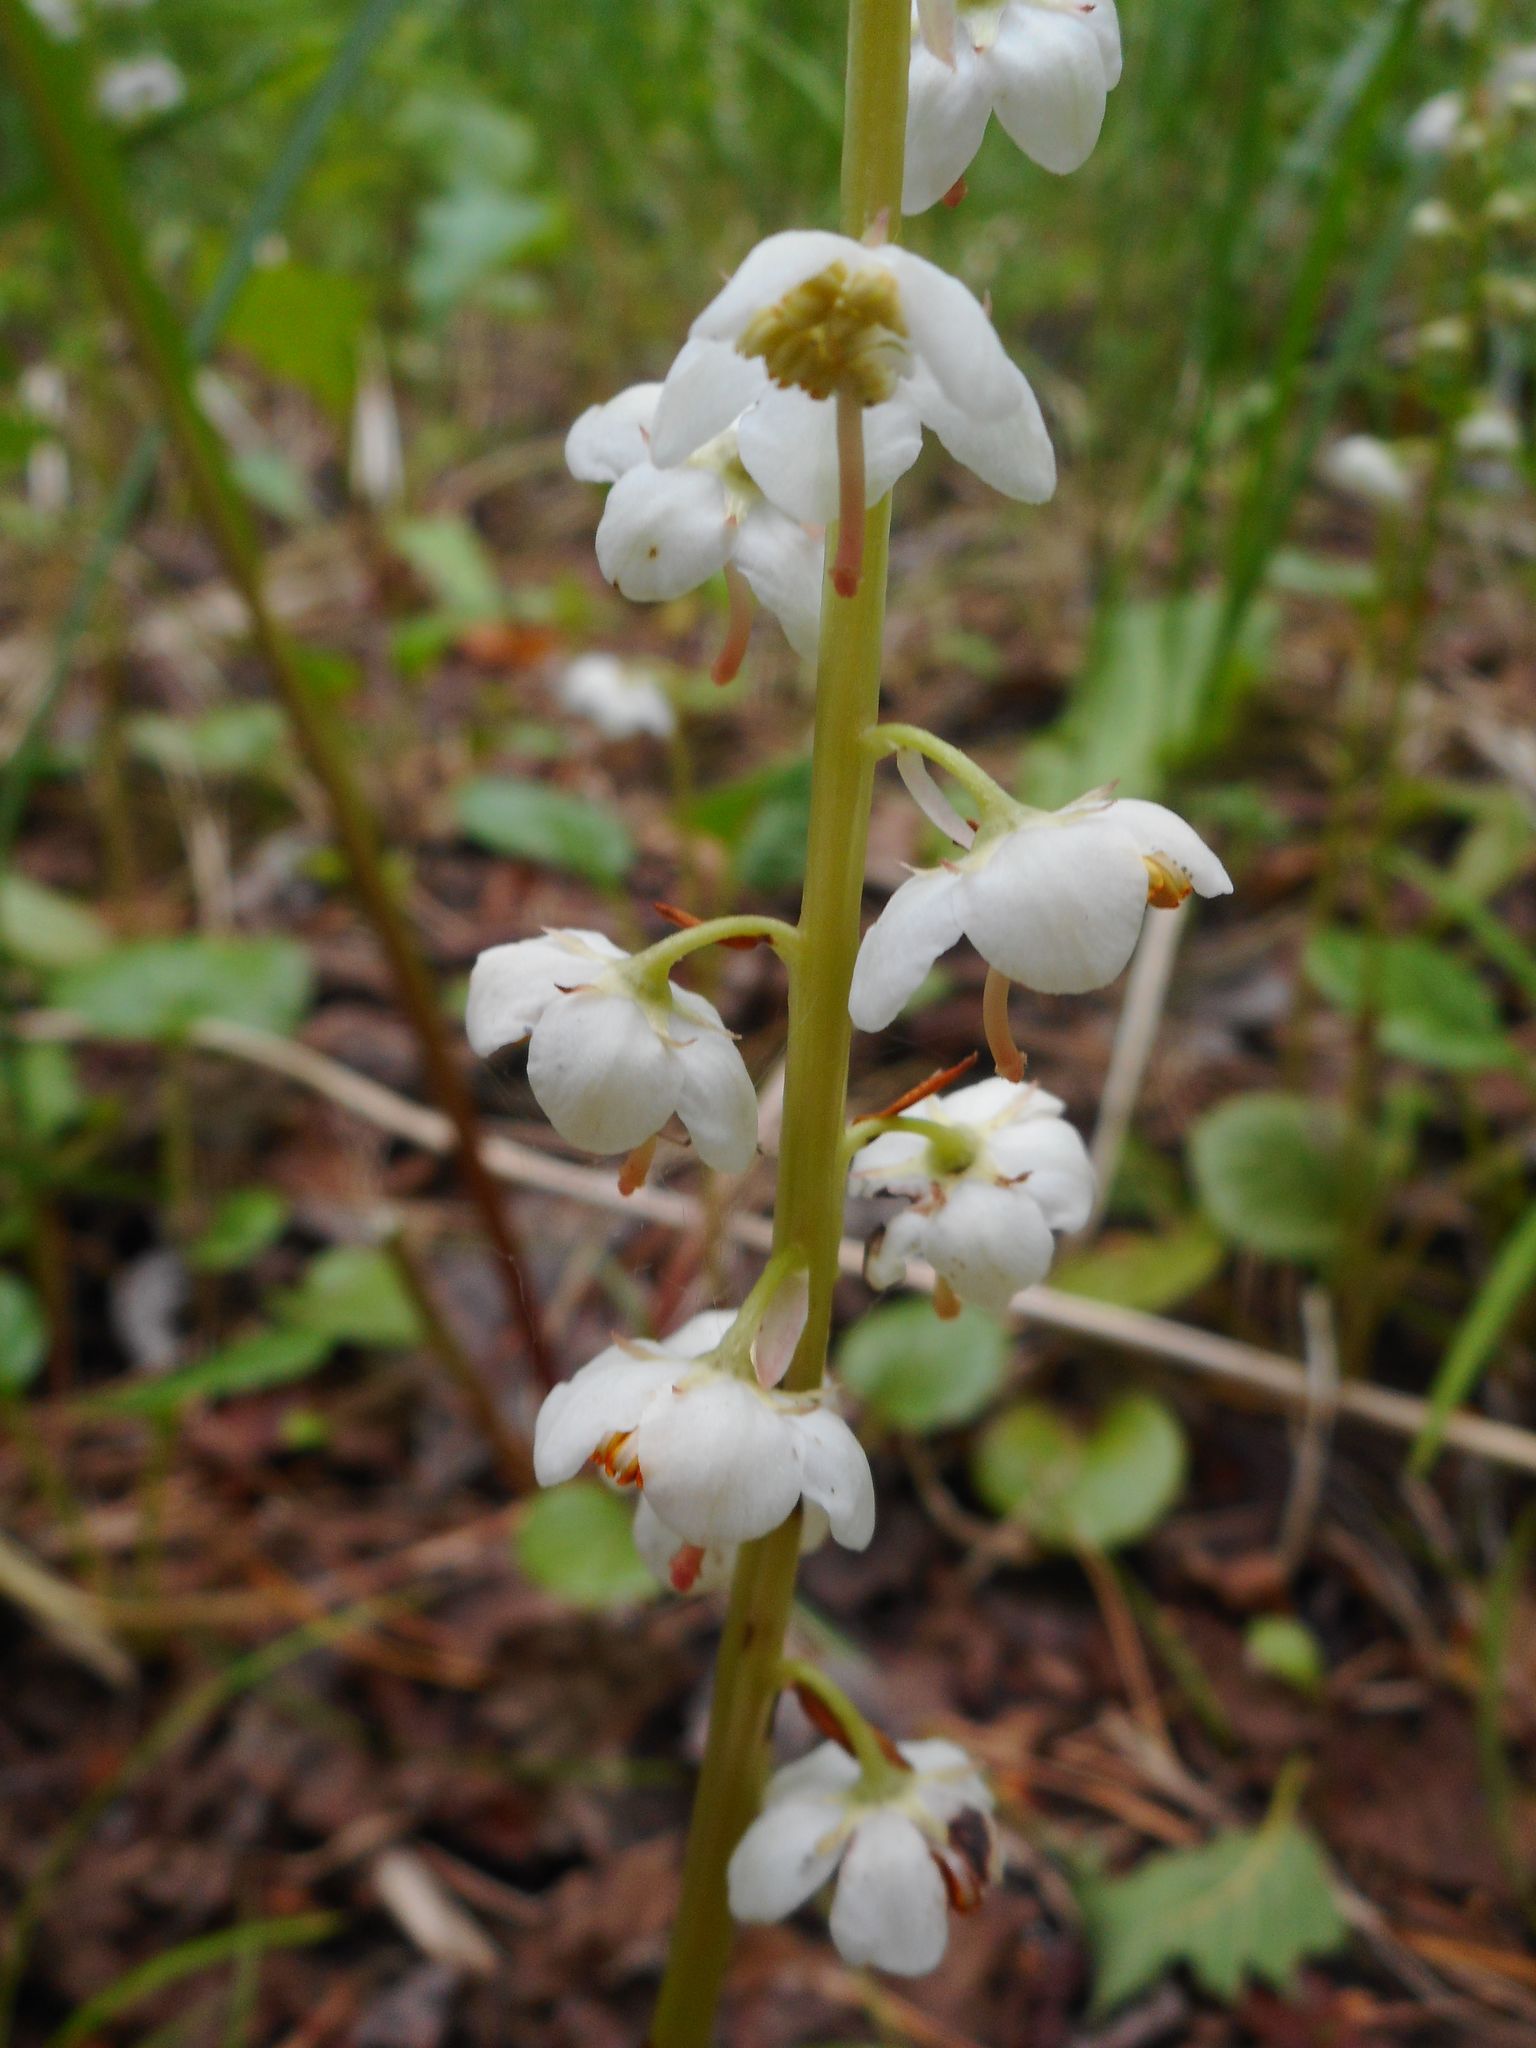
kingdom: Plantae
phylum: Tracheophyta
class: Magnoliopsida
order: Ericales
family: Ericaceae
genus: Pyrola
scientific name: Pyrola rotundifolia
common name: Round-leaved wintergreen
